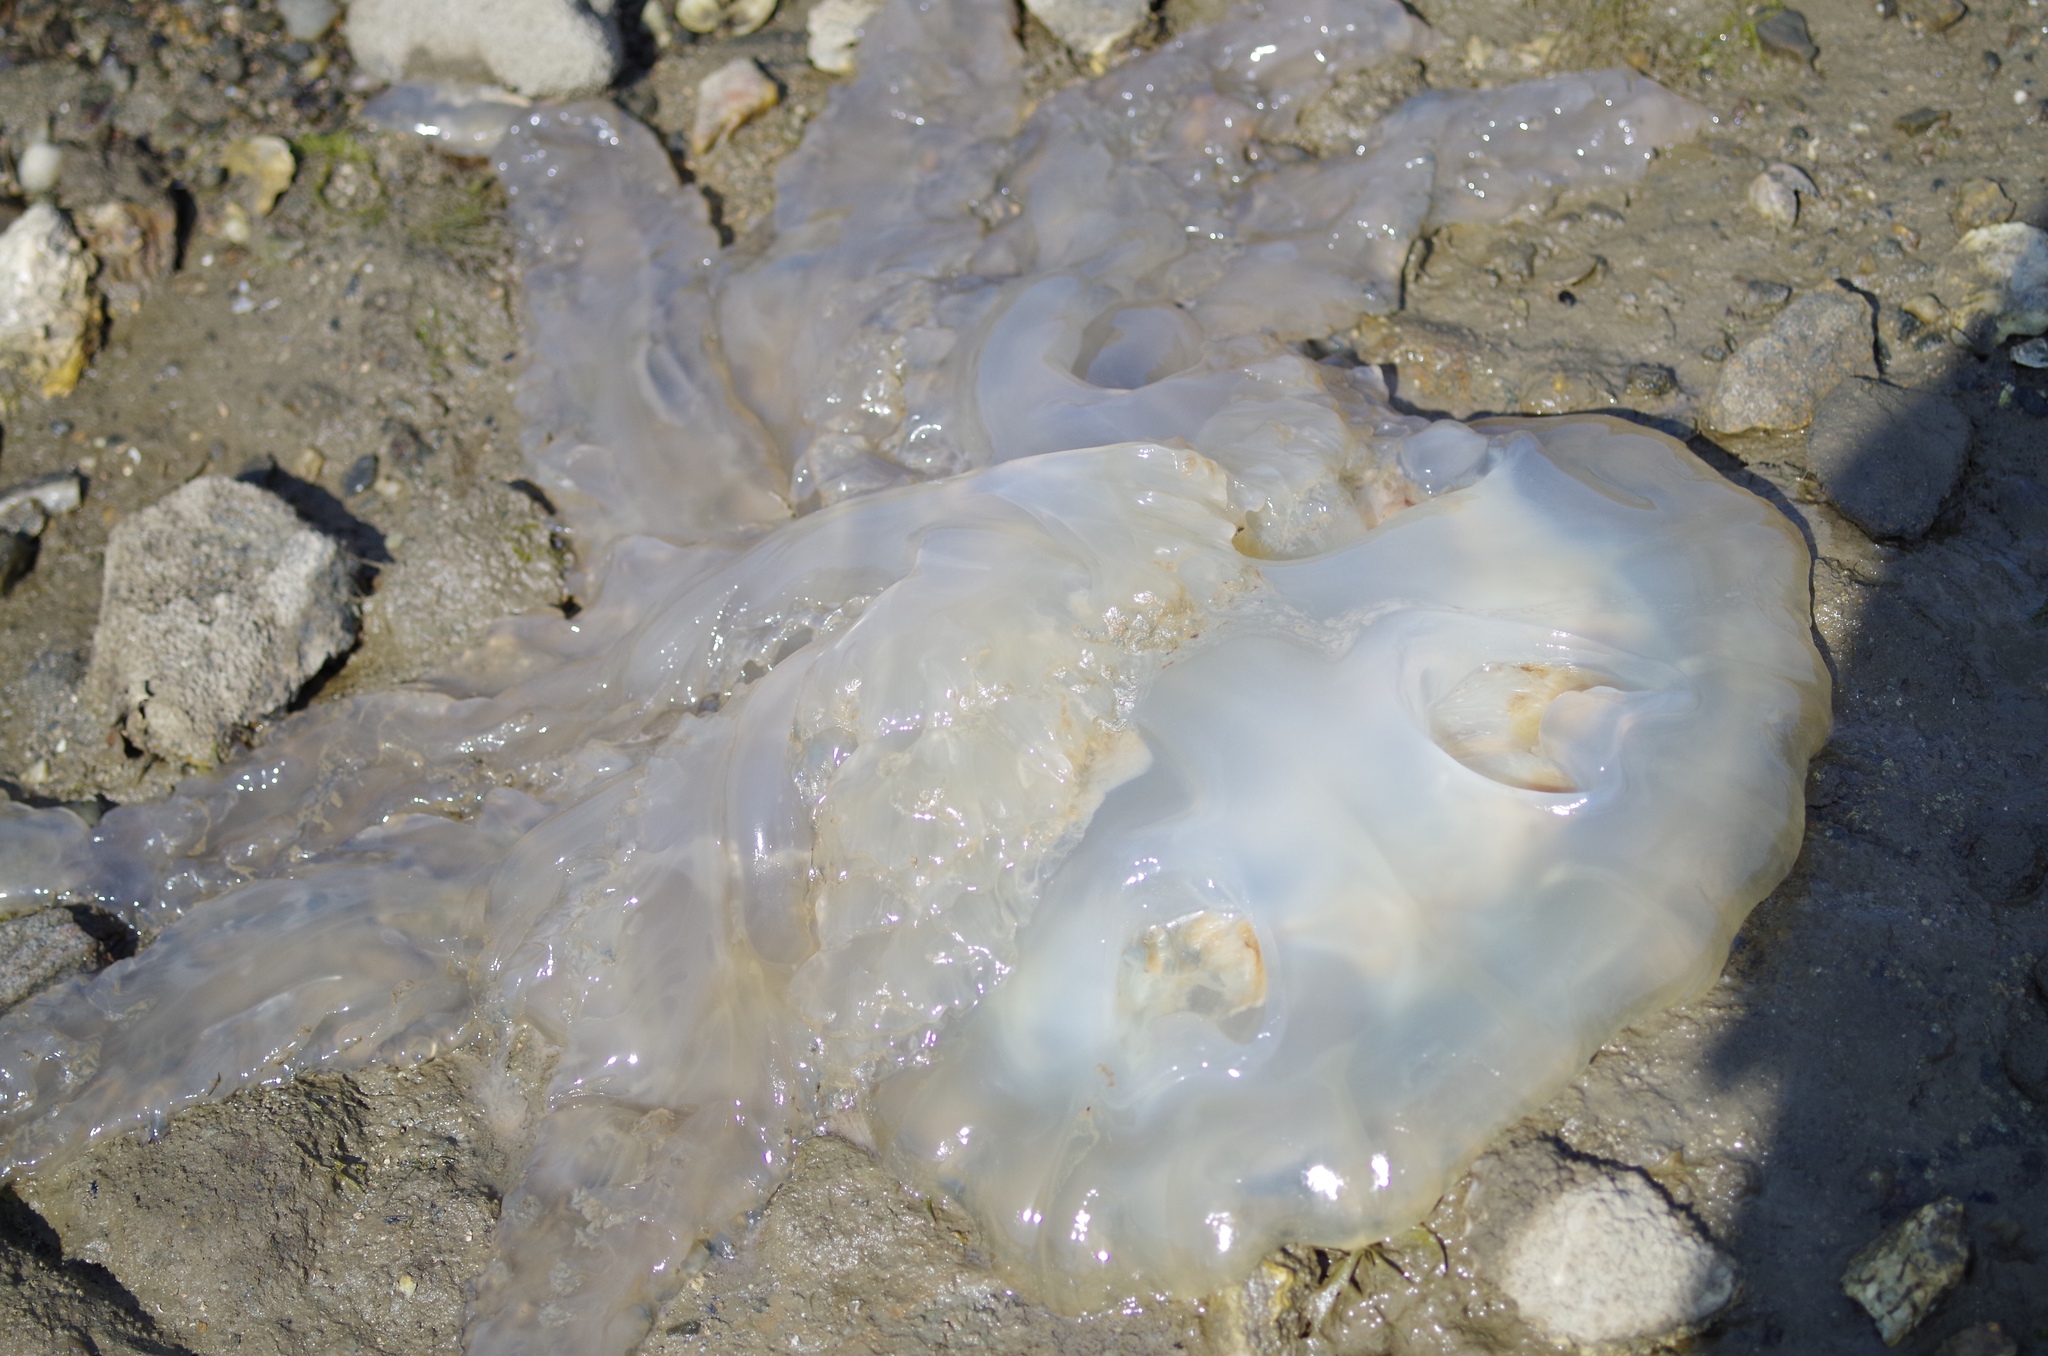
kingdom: Animalia
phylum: Cnidaria
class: Scyphozoa
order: Rhizostomeae
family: Rhizostomatidae
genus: Rhizostoma
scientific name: Rhizostoma octopus
